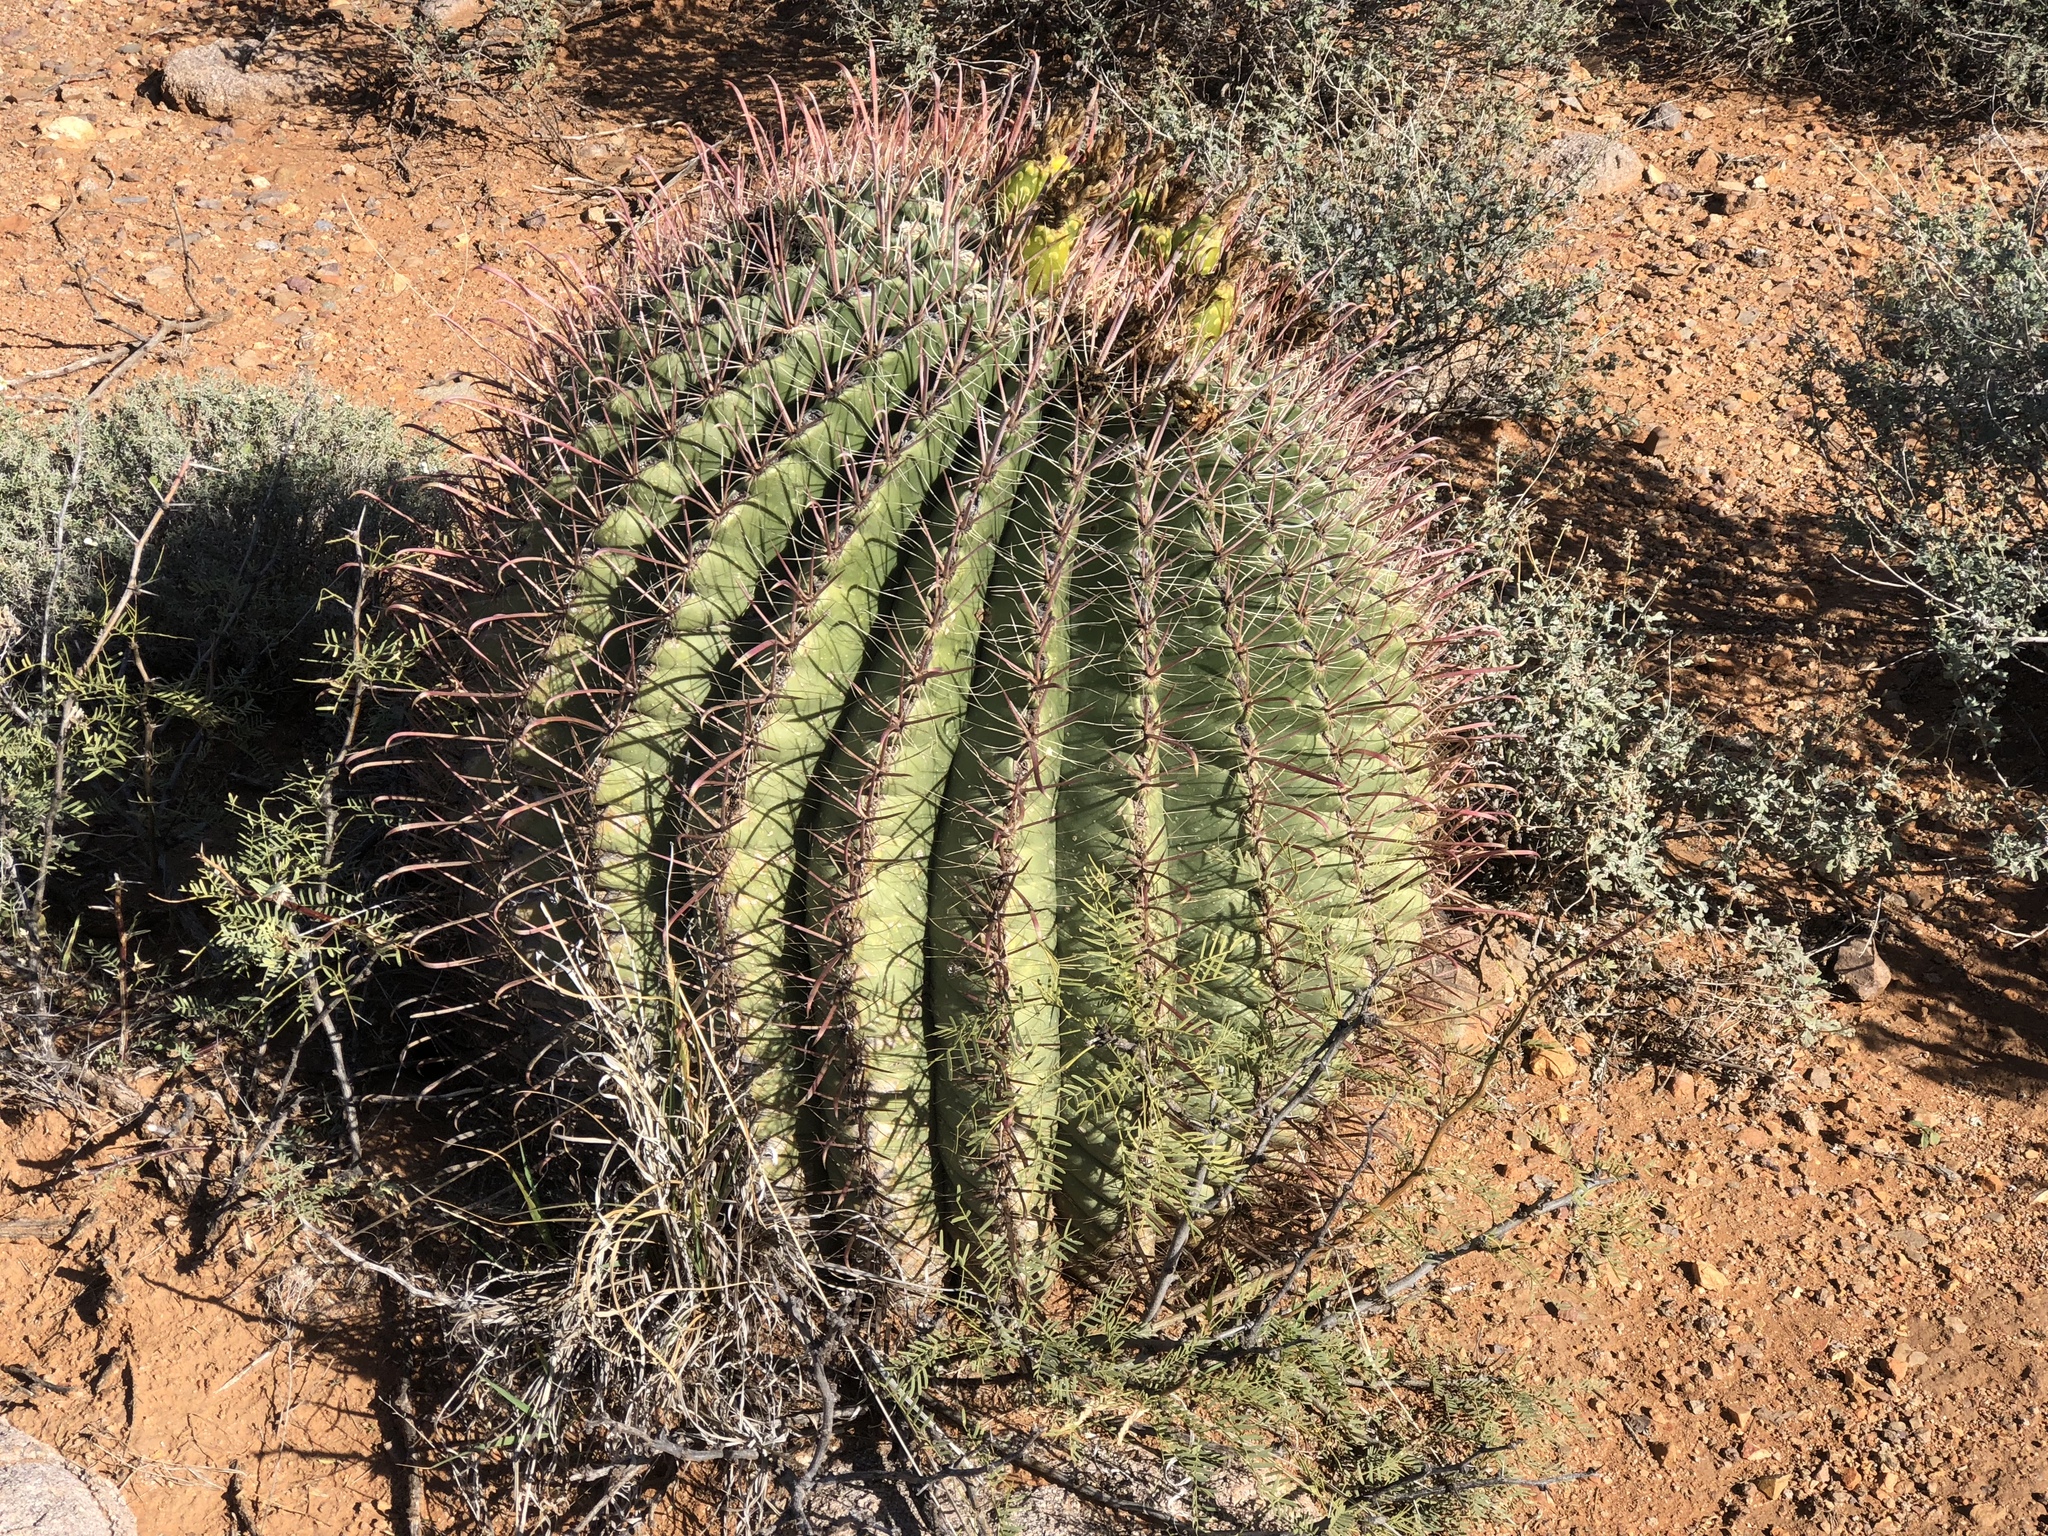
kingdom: Plantae
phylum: Tracheophyta
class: Magnoliopsida
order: Caryophyllales
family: Cactaceae
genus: Ferocactus
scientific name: Ferocactus wislizeni
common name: Candy barrel cactus
